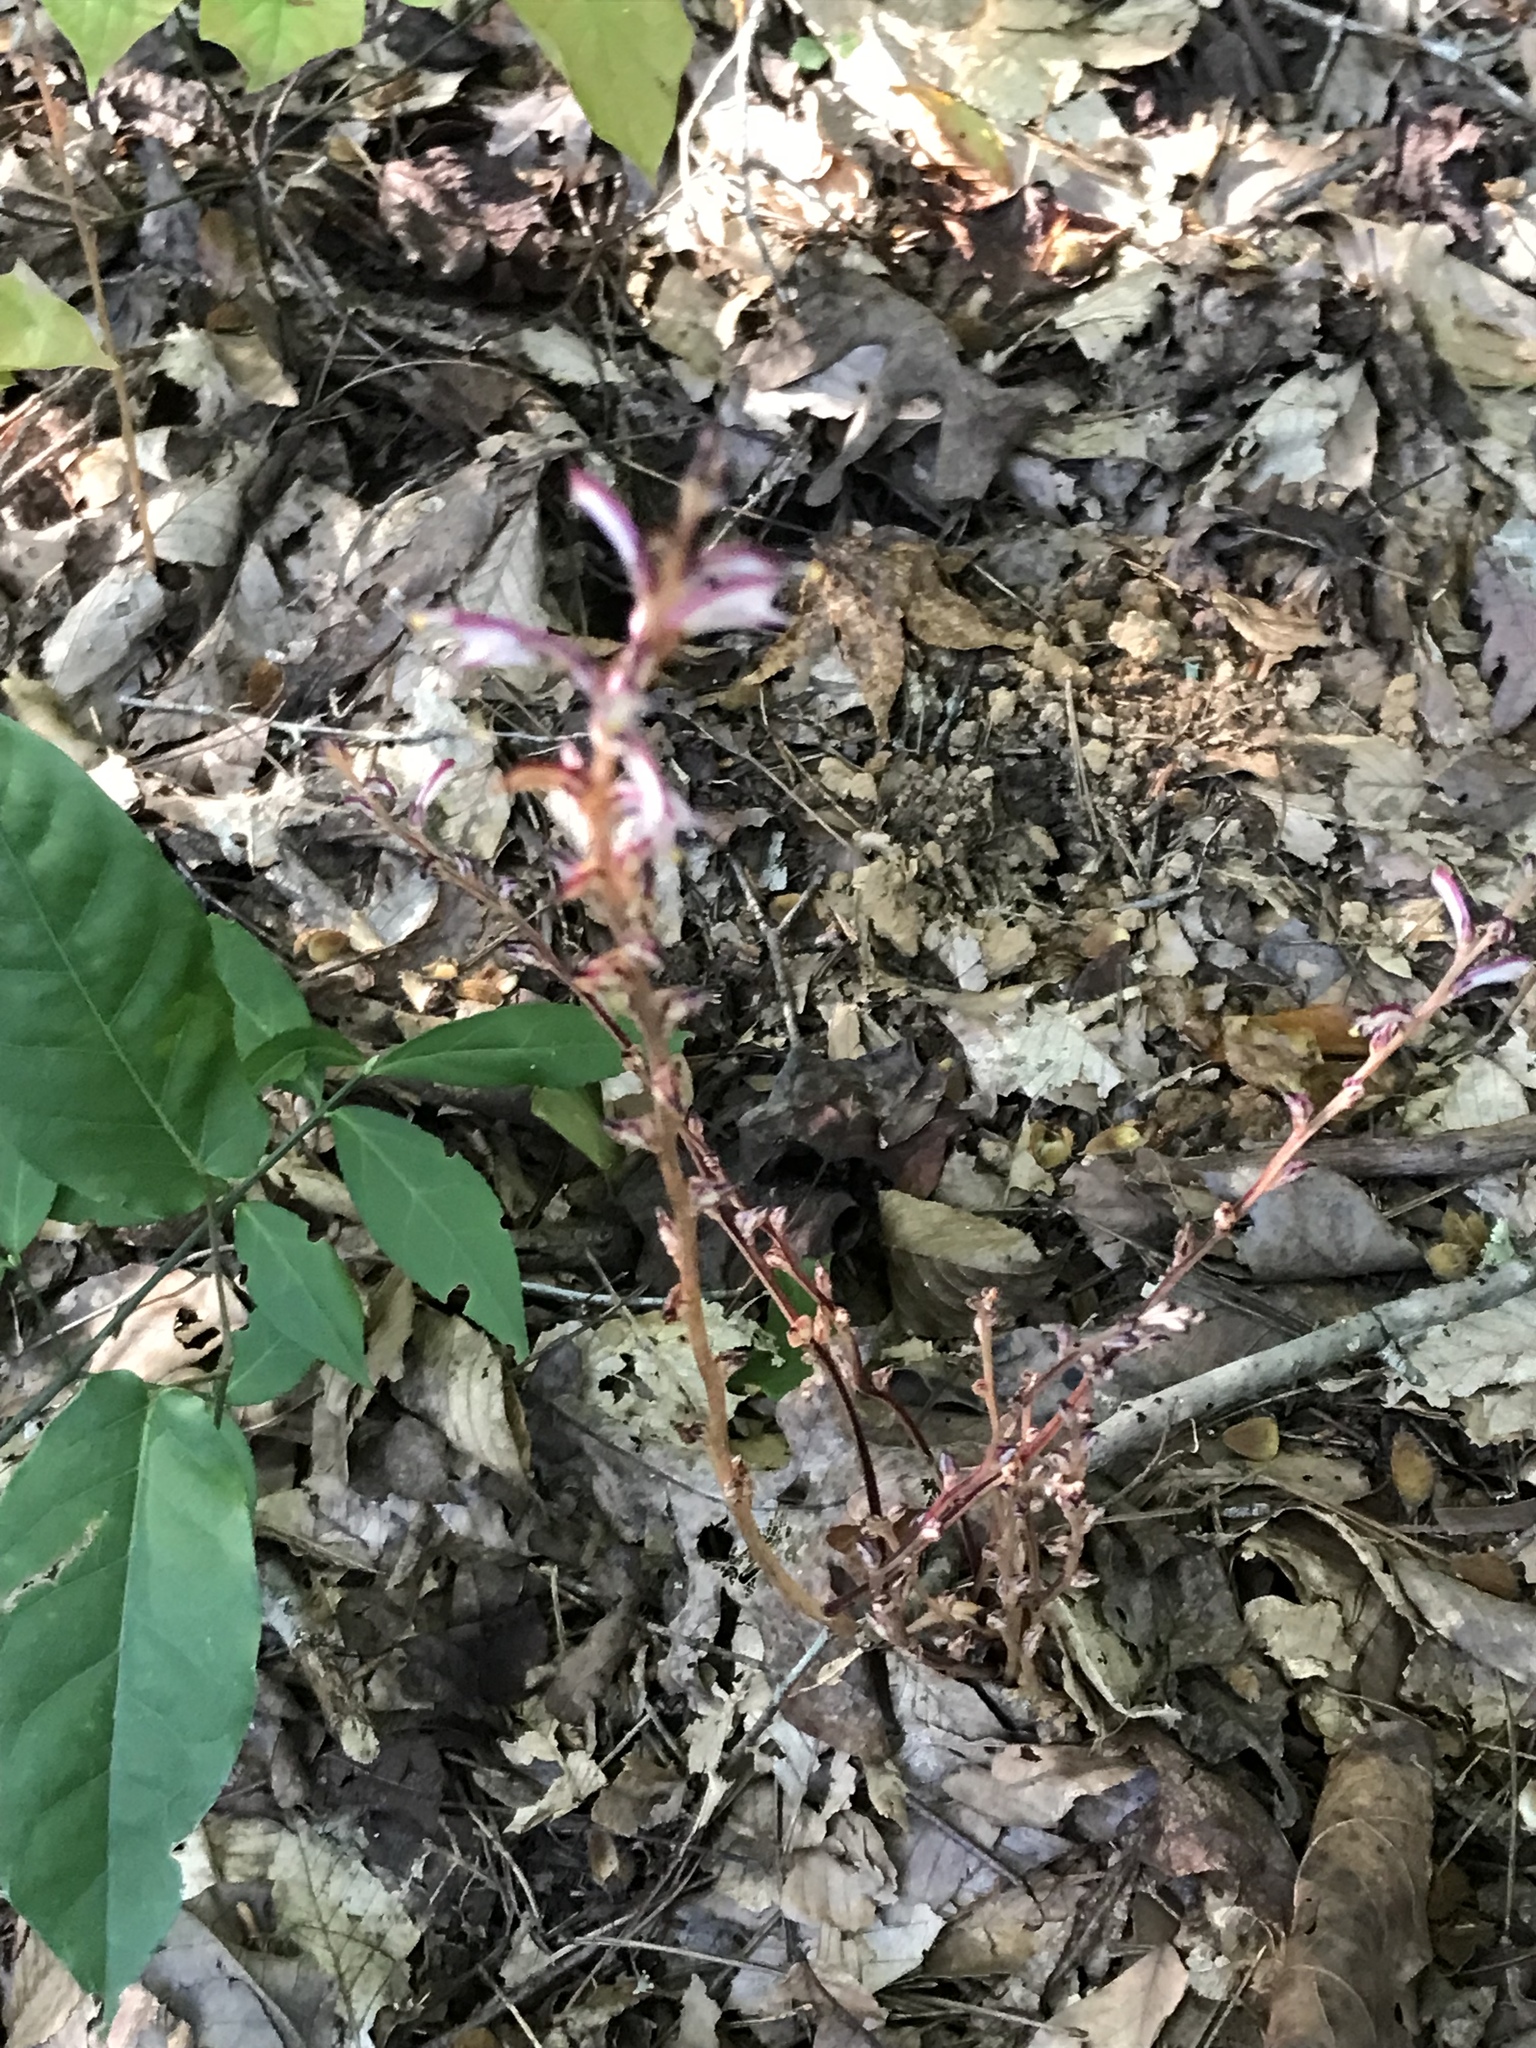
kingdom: Plantae
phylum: Tracheophyta
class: Magnoliopsida
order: Lamiales
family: Orobanchaceae
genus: Epifagus
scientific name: Epifagus virginiana
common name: Beechdrops
